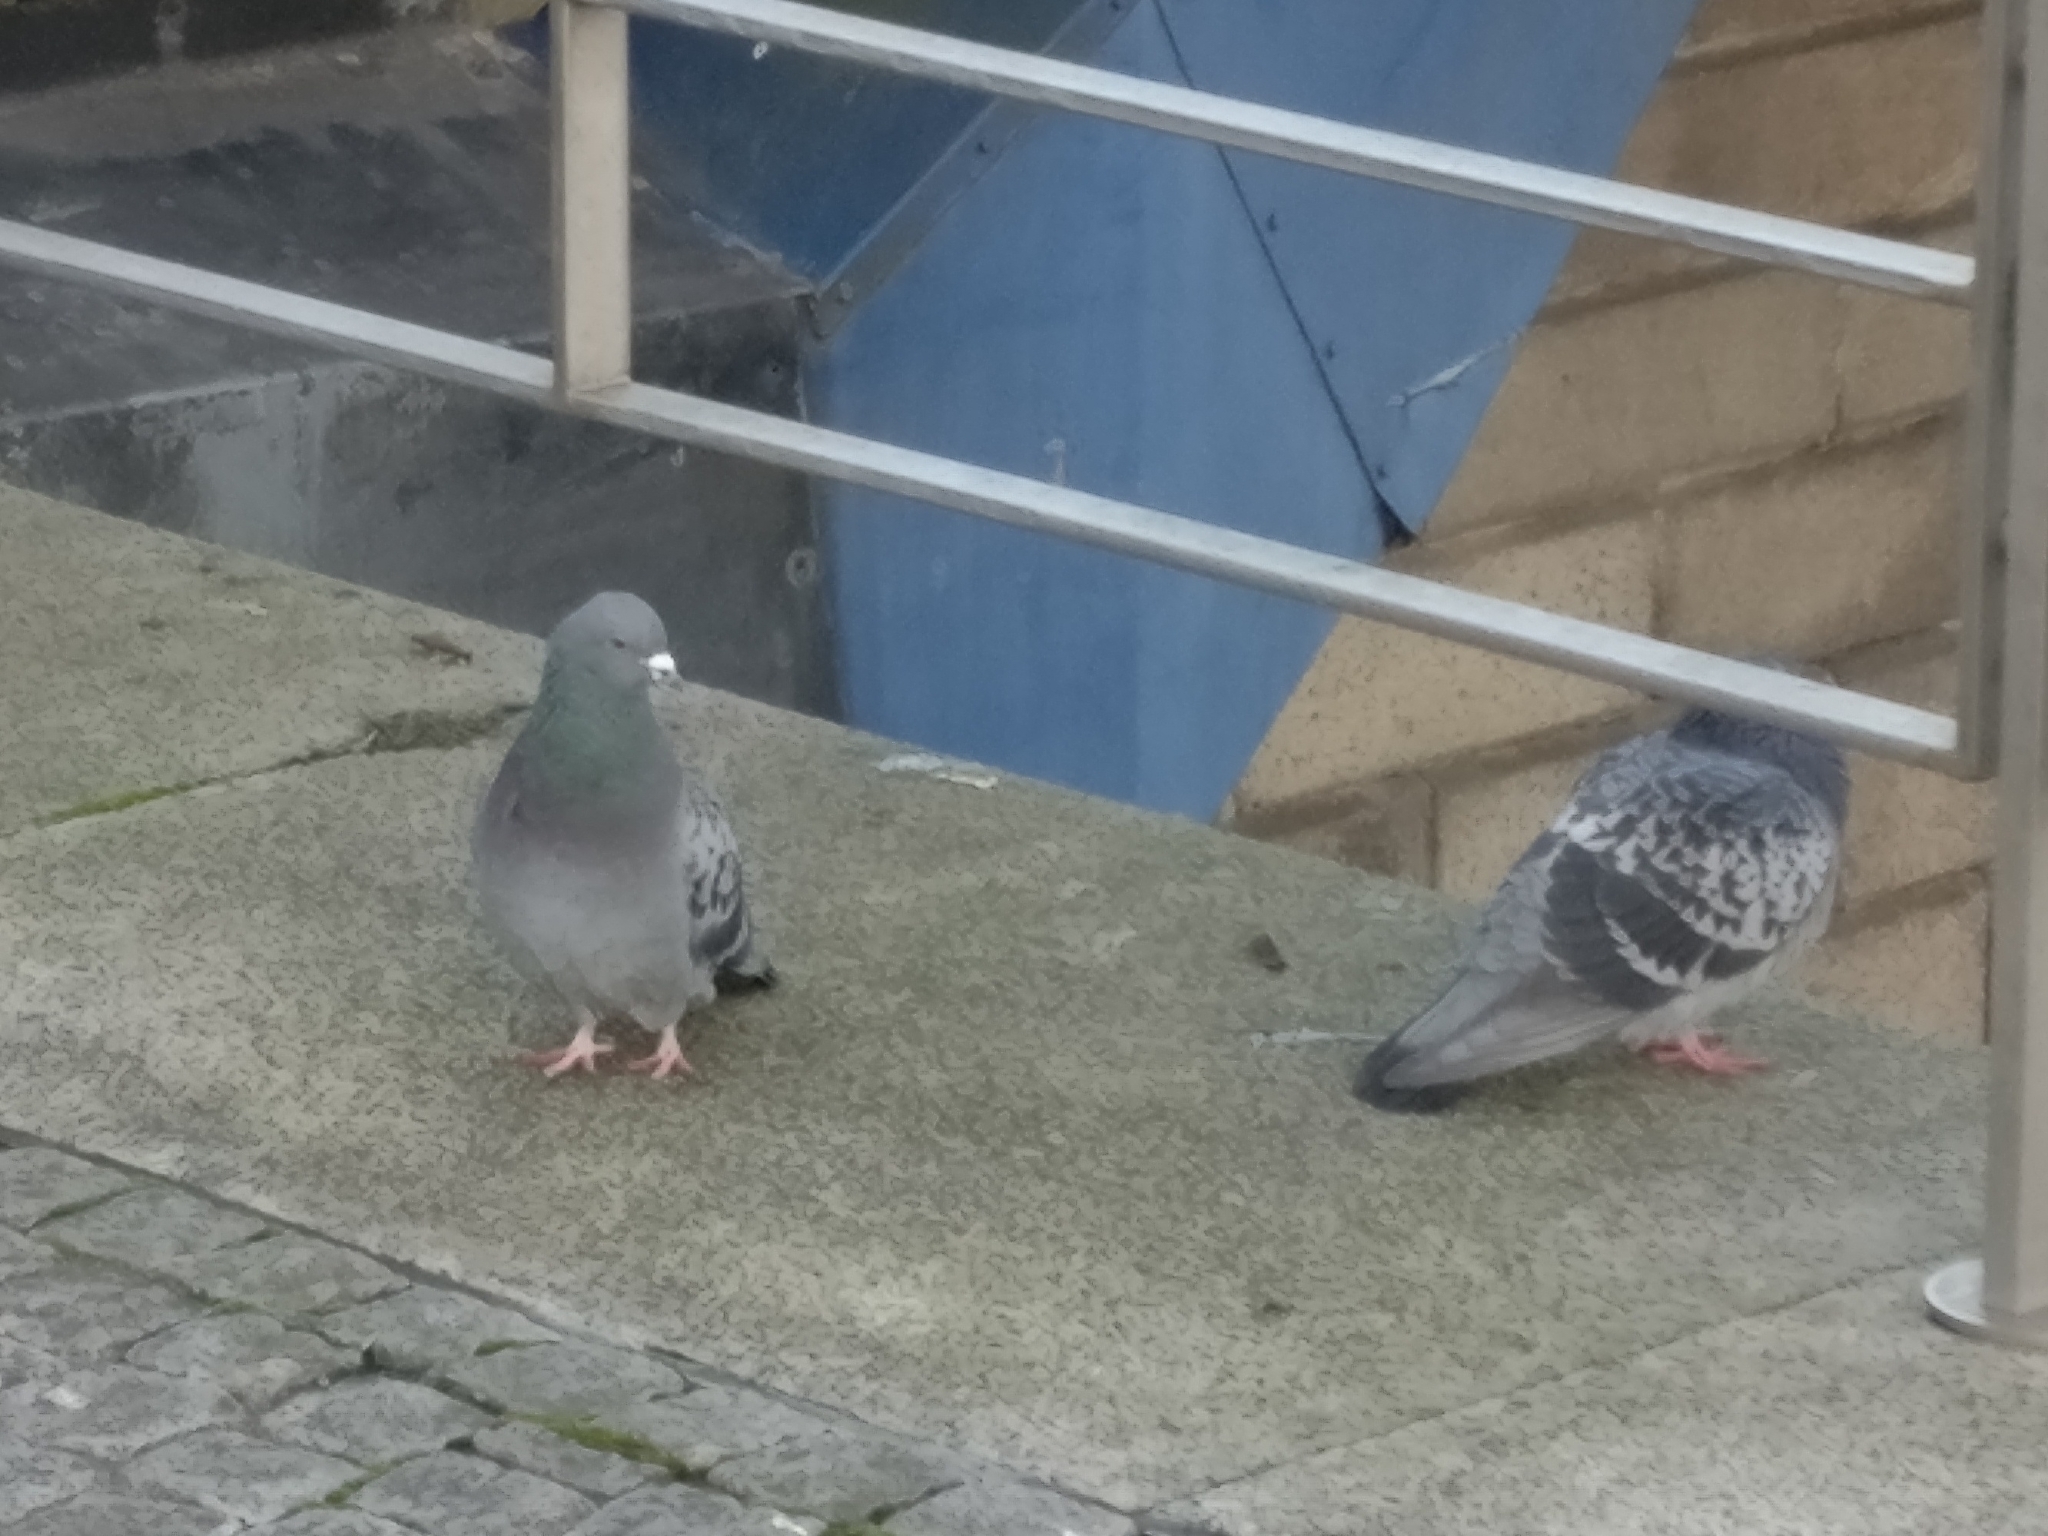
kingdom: Animalia
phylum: Chordata
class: Aves
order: Columbiformes
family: Columbidae
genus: Columba
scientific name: Columba livia
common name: Rock pigeon
